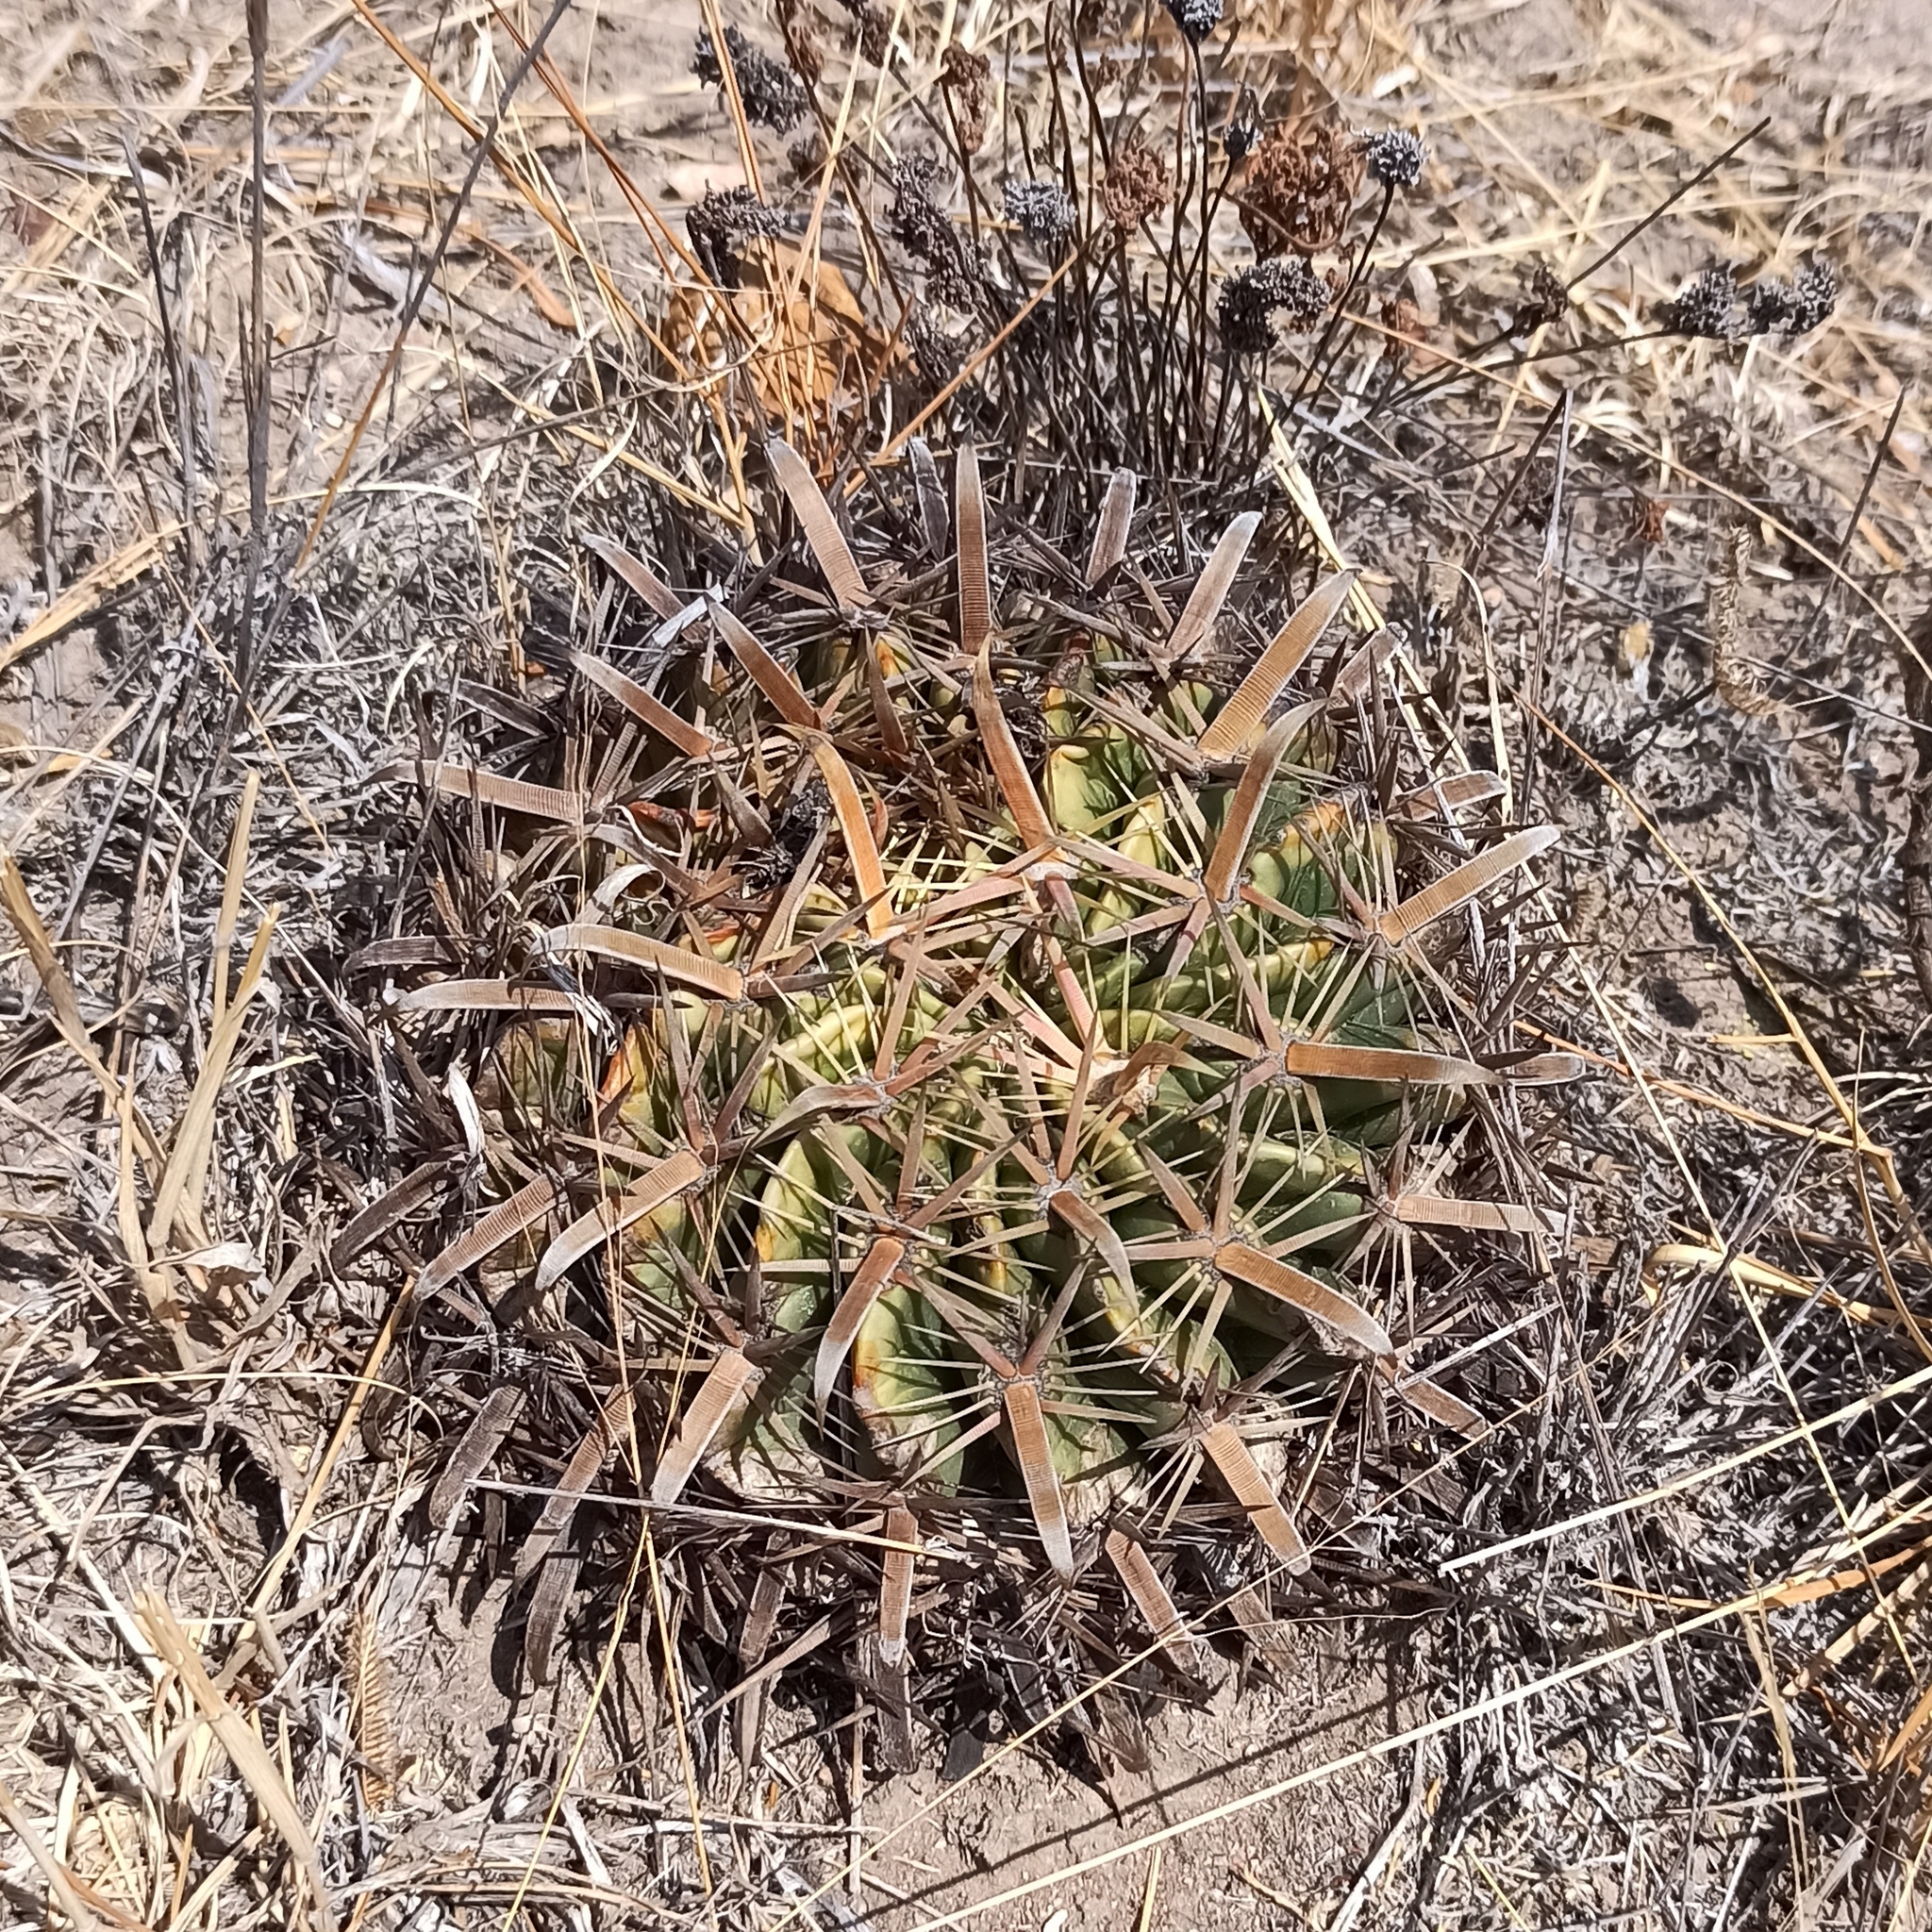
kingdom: Plantae
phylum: Tracheophyta
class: Magnoliopsida
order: Caryophyllales
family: Cactaceae
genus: Ferocactus
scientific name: Ferocactus latispinus
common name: Devil's-tongue cactus
